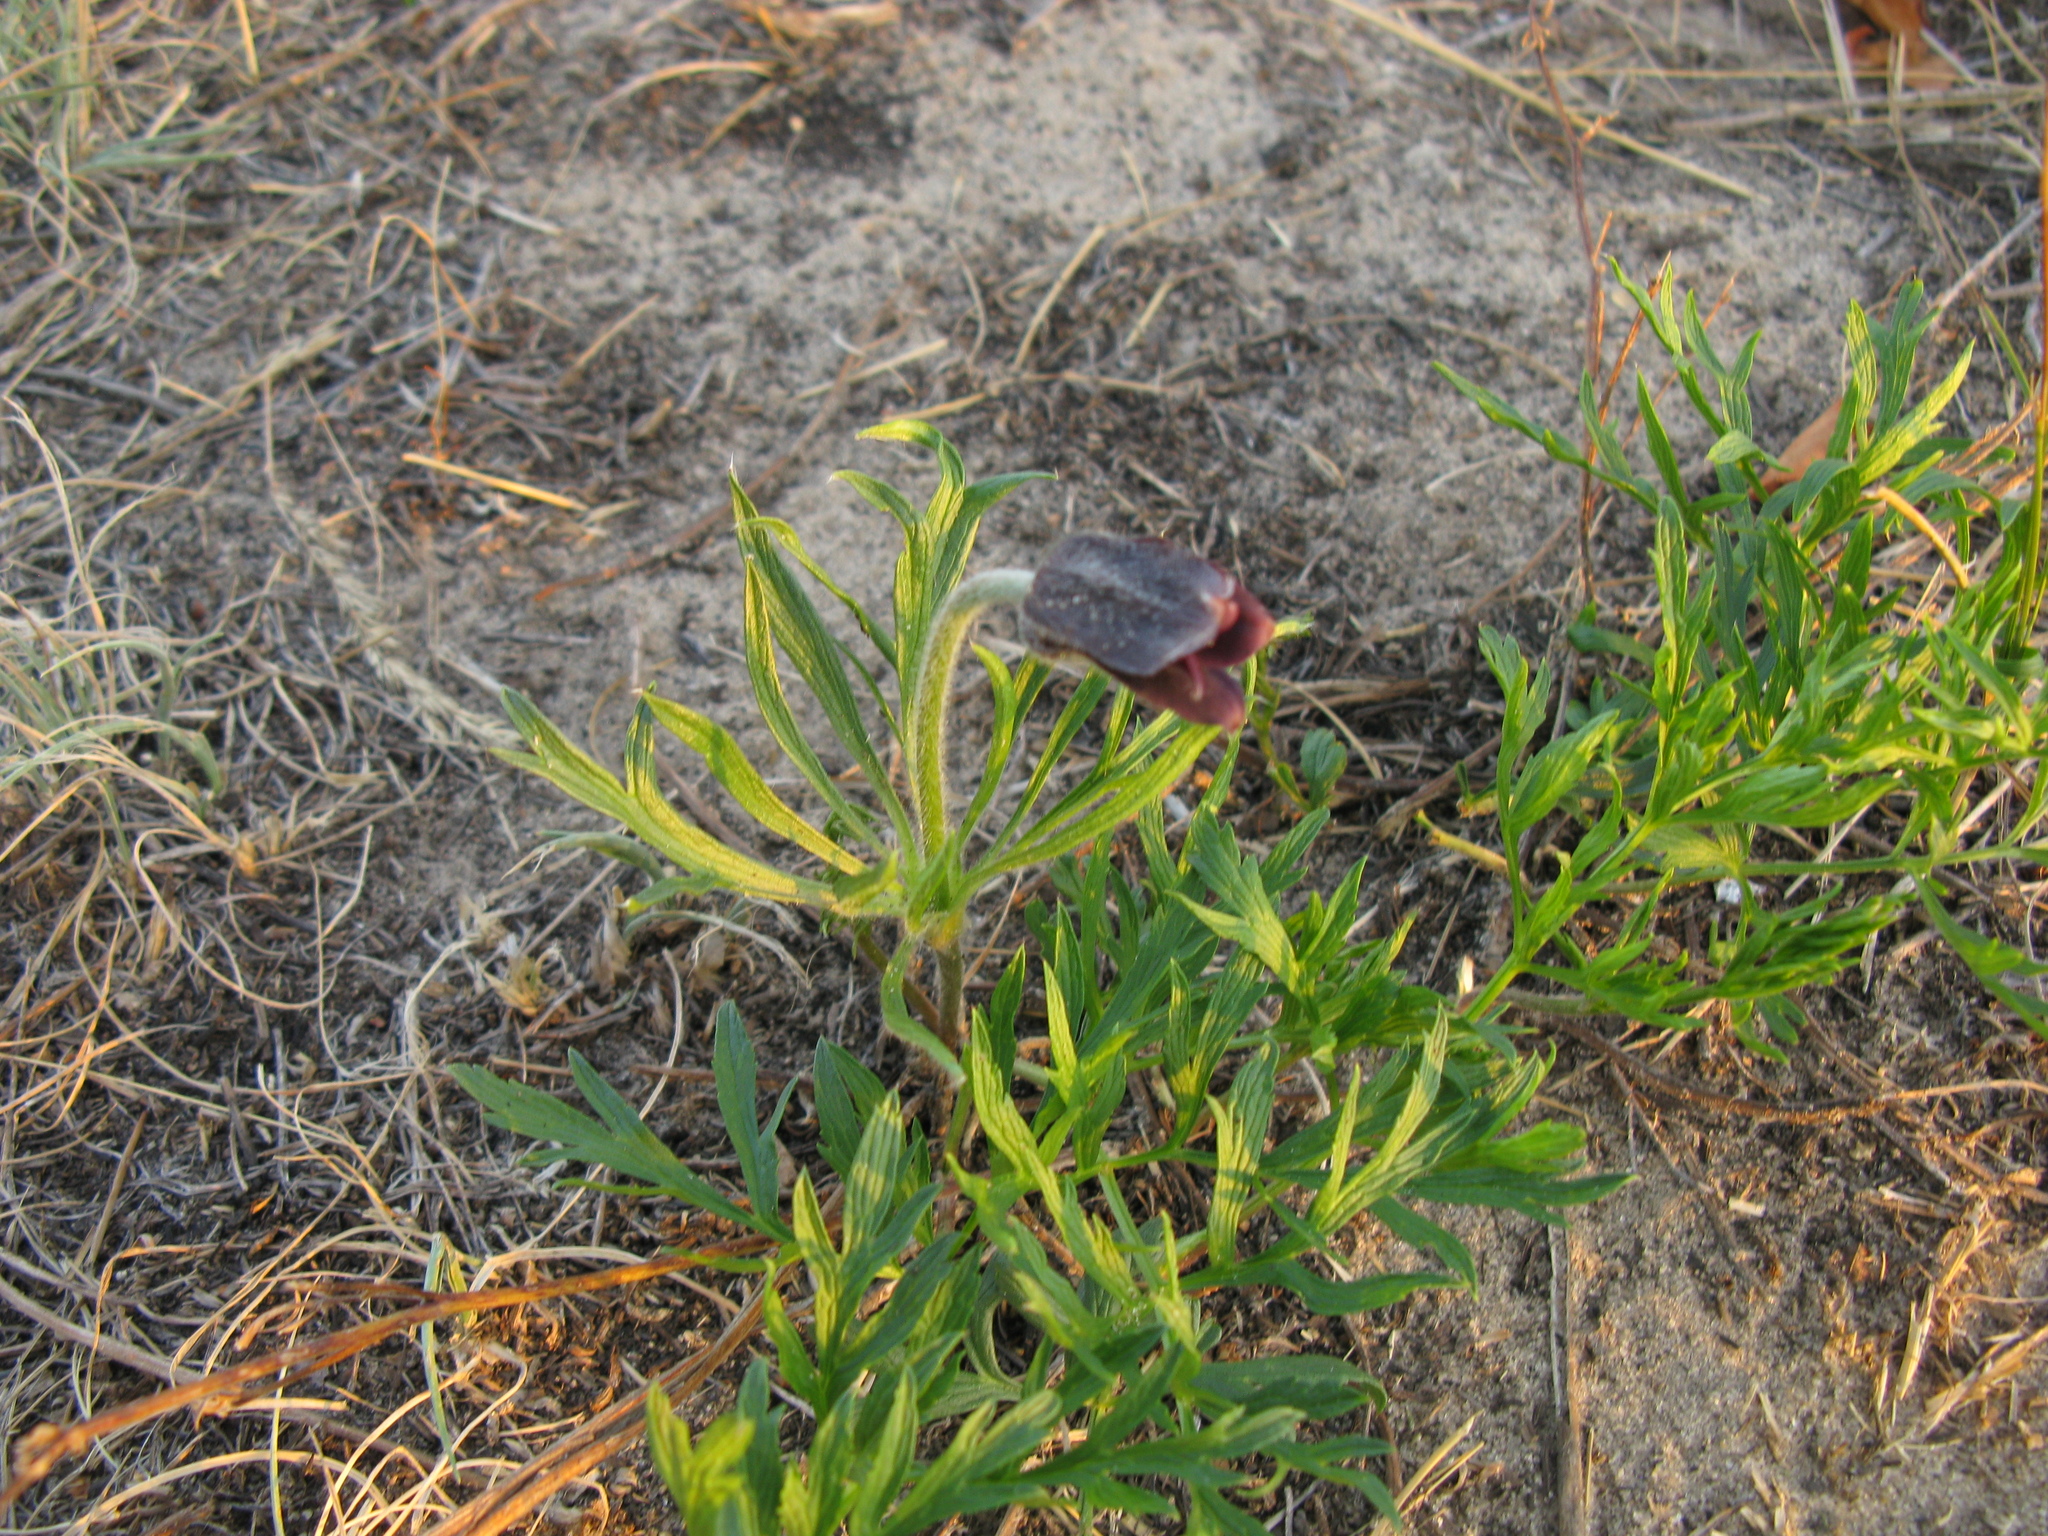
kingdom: Plantae
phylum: Tracheophyta
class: Magnoliopsida
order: Ranunculales
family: Ranunculaceae
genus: Pulsatilla
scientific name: Pulsatilla pratensis
